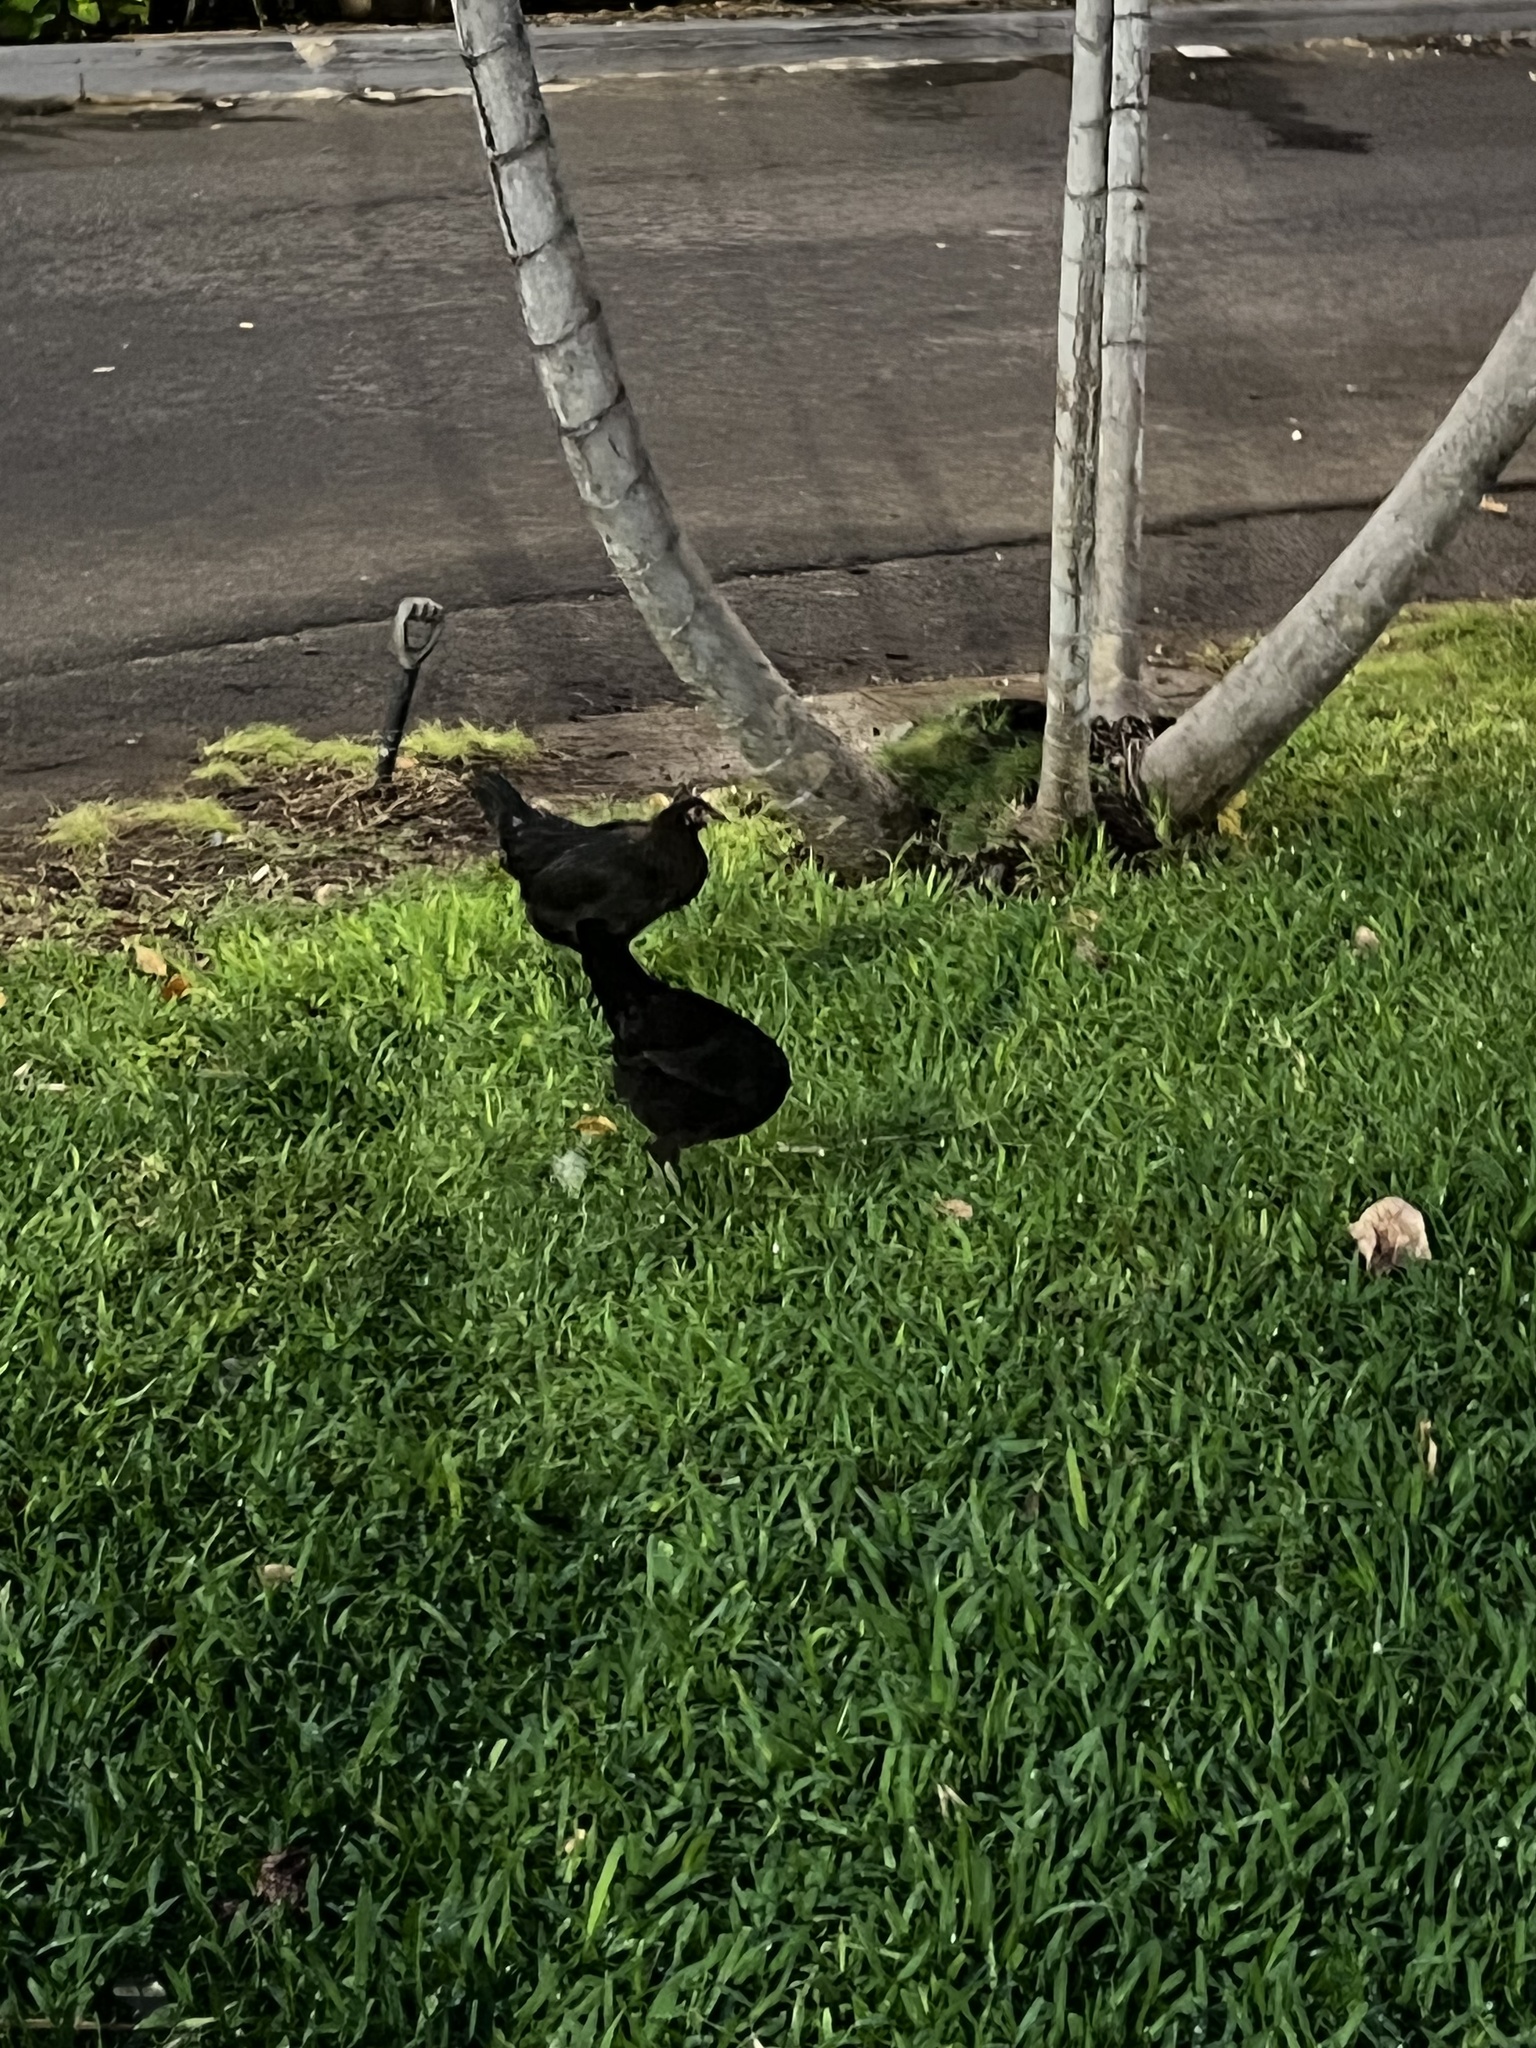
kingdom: Animalia
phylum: Chordata
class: Aves
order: Galliformes
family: Phasianidae
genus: Gallus
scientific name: Gallus gallus
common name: Red junglefowl
